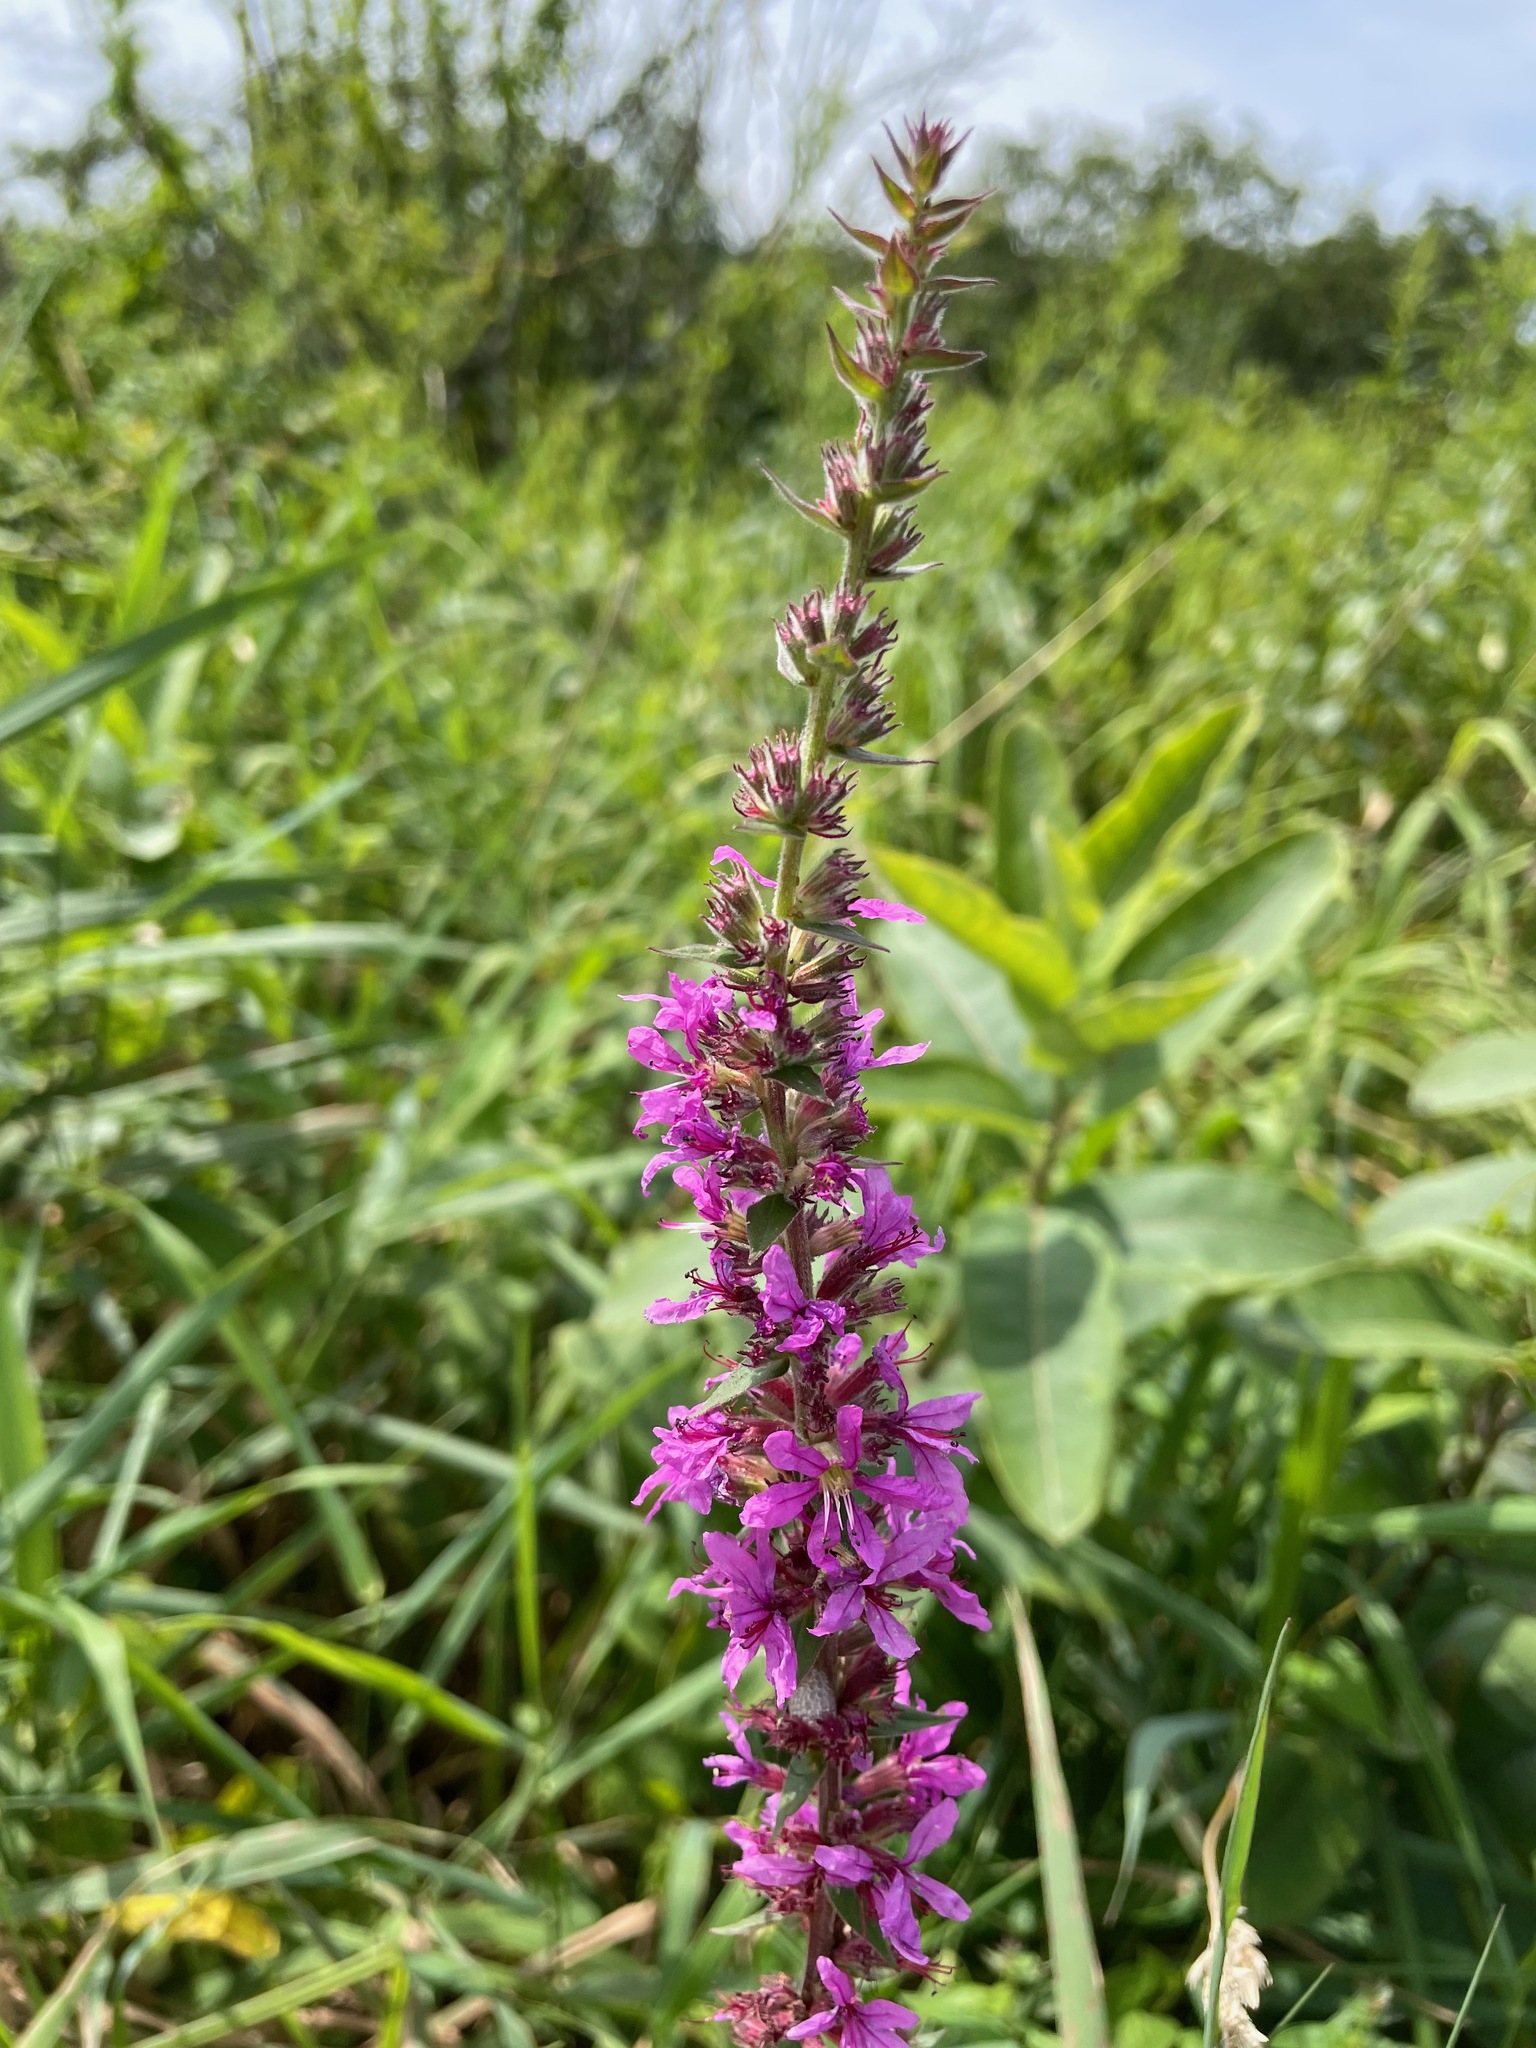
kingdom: Plantae
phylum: Tracheophyta
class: Magnoliopsida
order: Myrtales
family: Lythraceae
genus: Lythrum
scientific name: Lythrum salicaria
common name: Purple loosestrife
